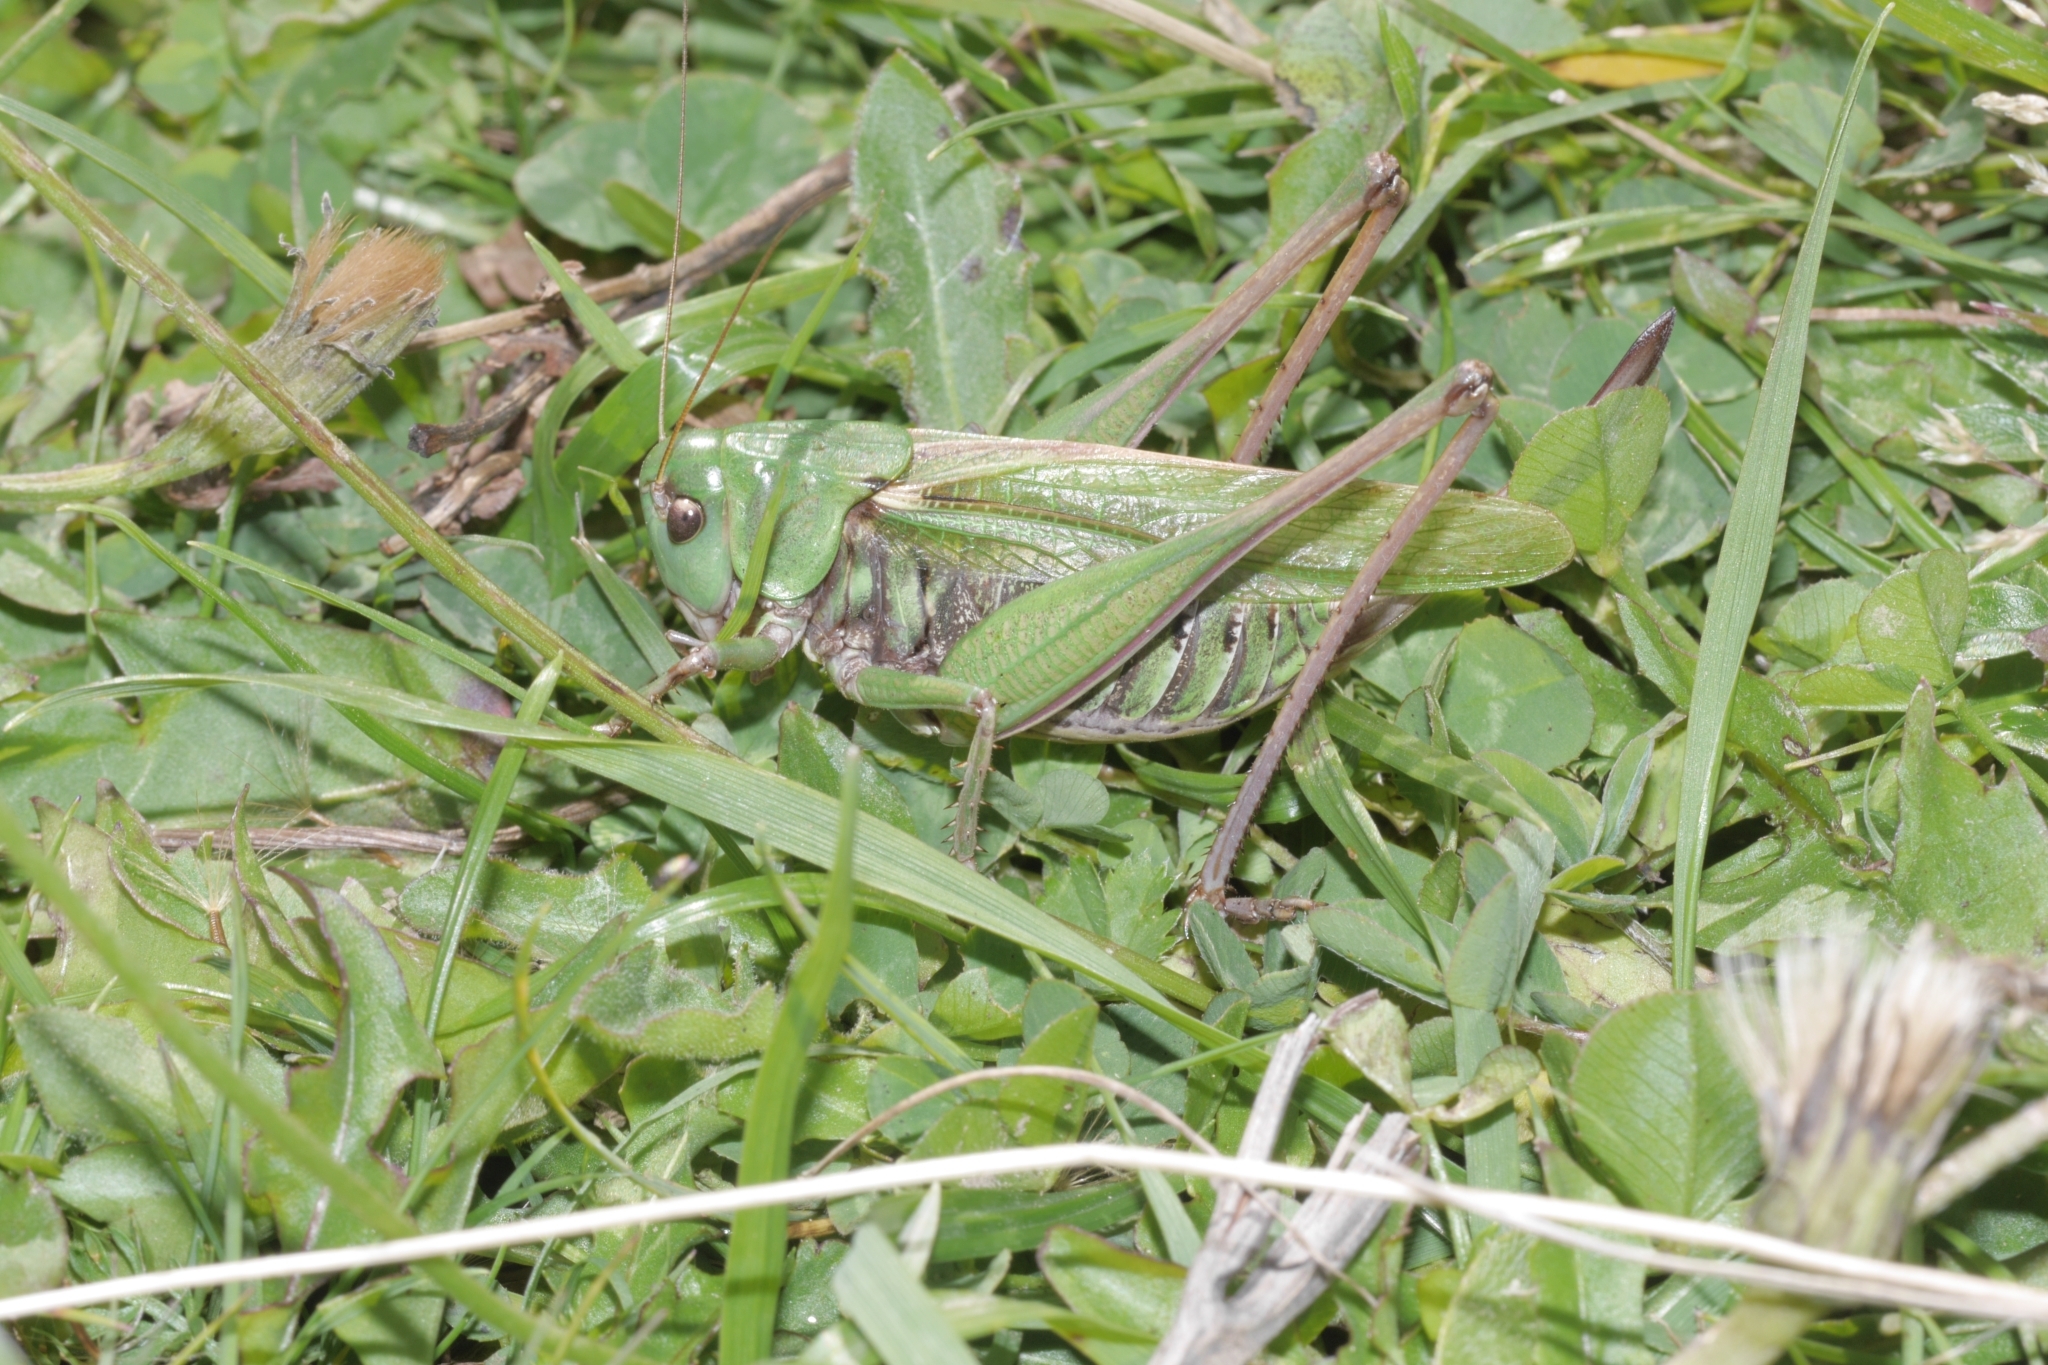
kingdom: Animalia
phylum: Arthropoda
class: Insecta
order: Orthoptera
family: Tettigoniidae
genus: Decticus
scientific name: Decticus verrucivorus
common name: Wart-biter
